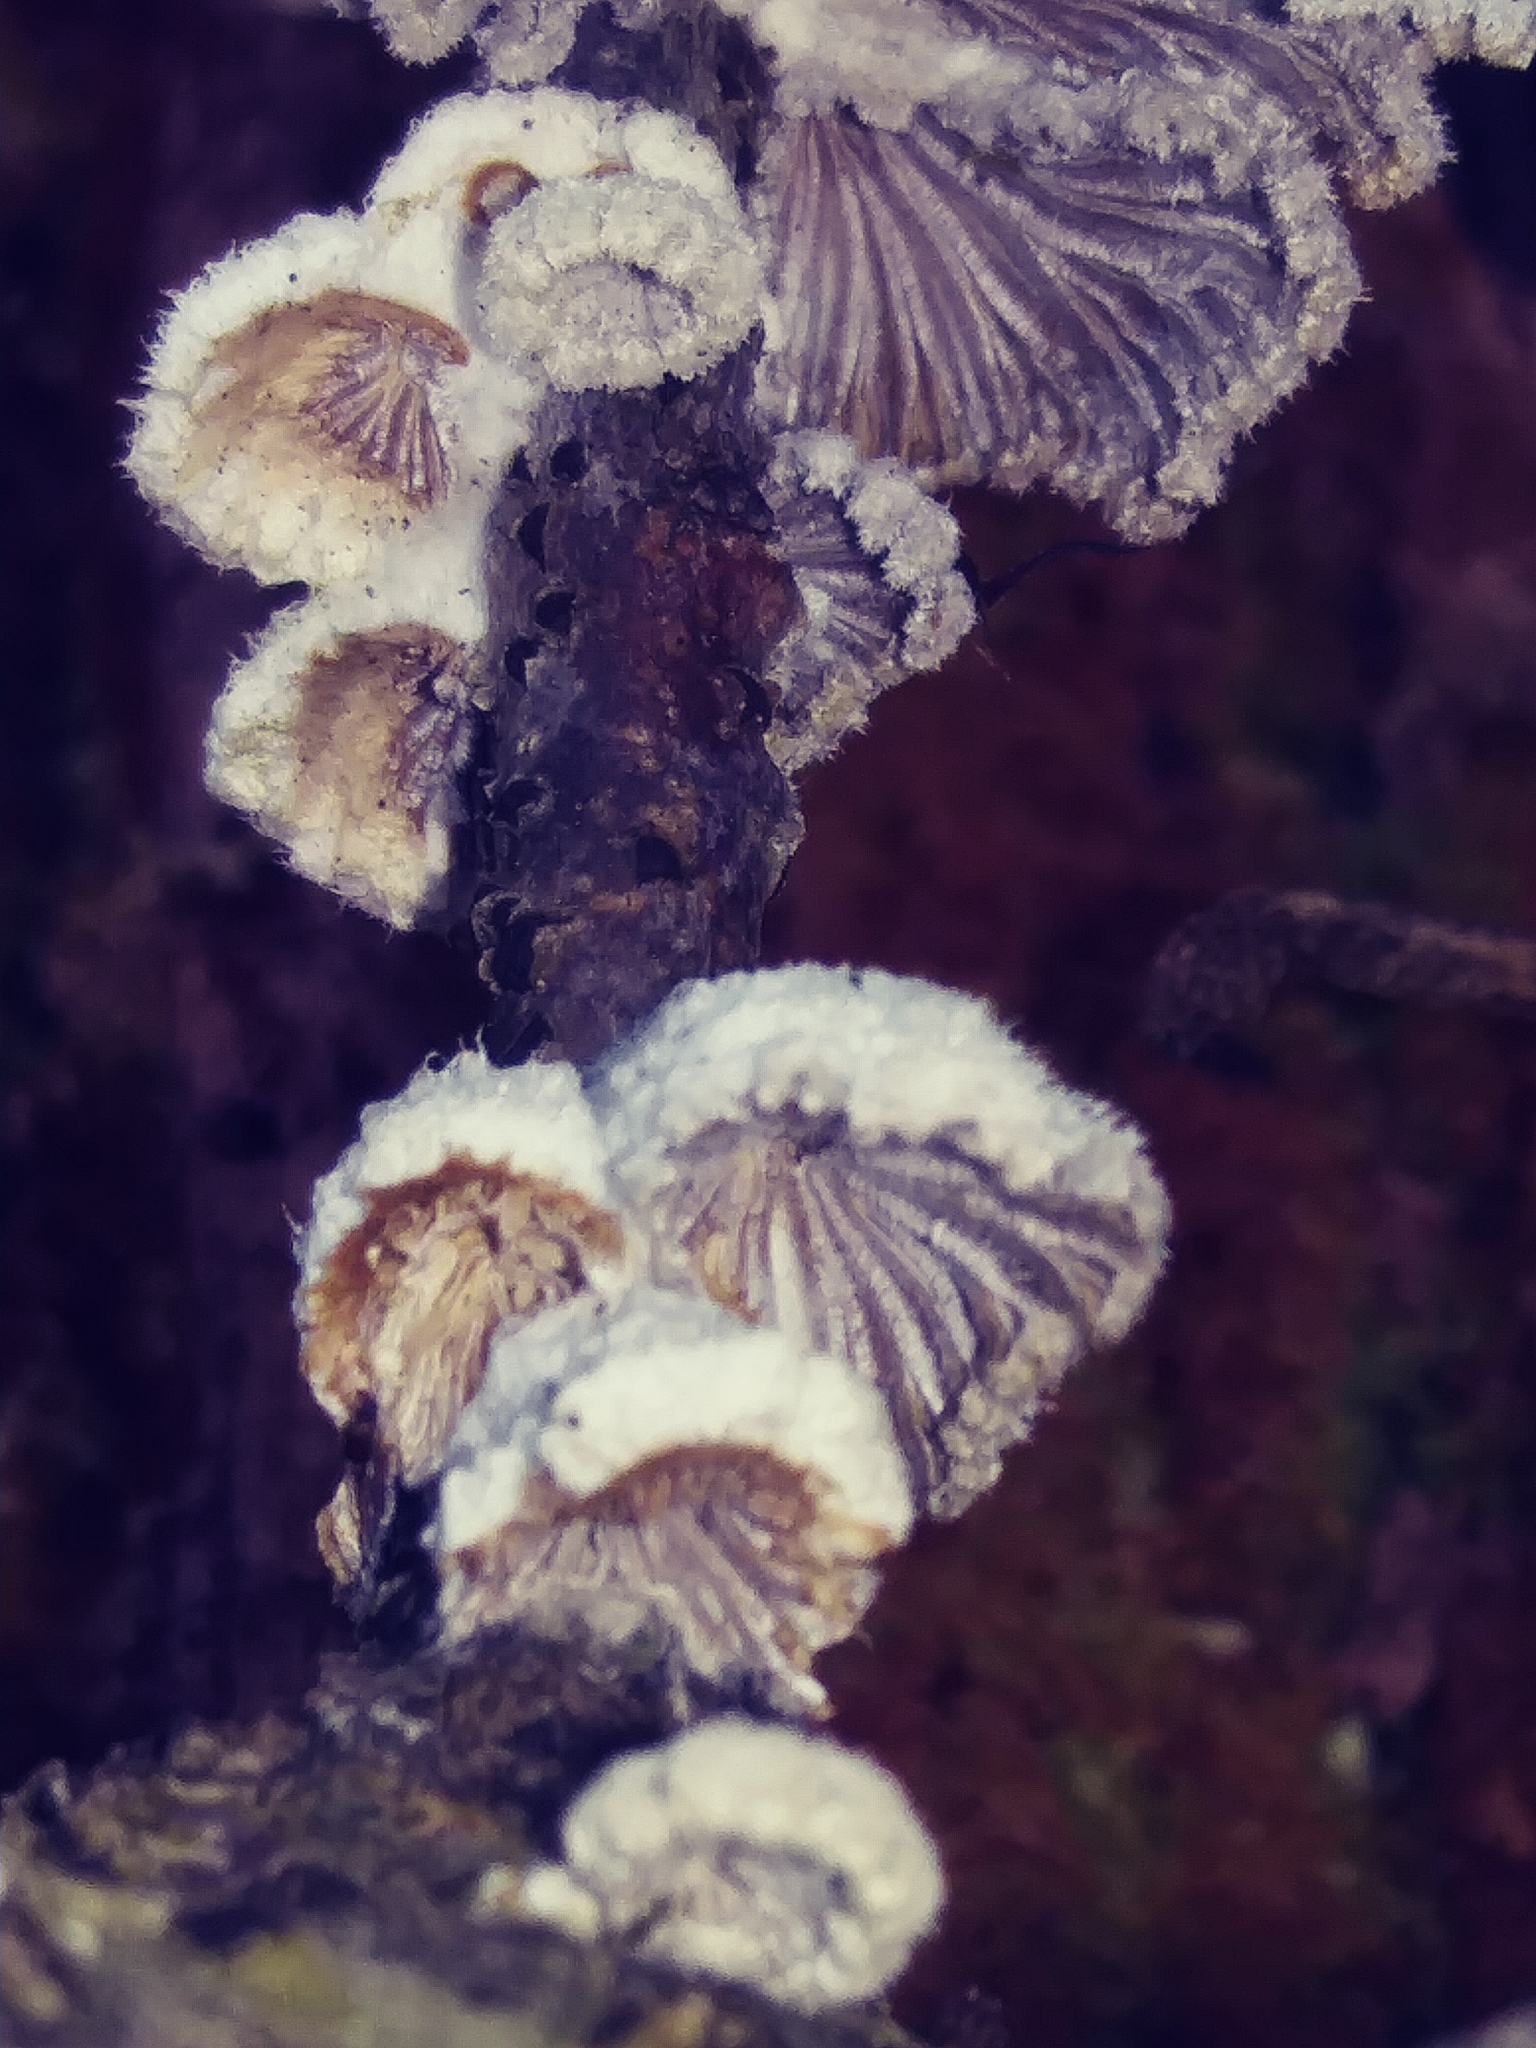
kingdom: Fungi
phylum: Basidiomycota
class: Agaricomycetes
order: Agaricales
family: Schizophyllaceae
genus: Schizophyllum
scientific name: Schizophyllum commune
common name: Common porecrust
